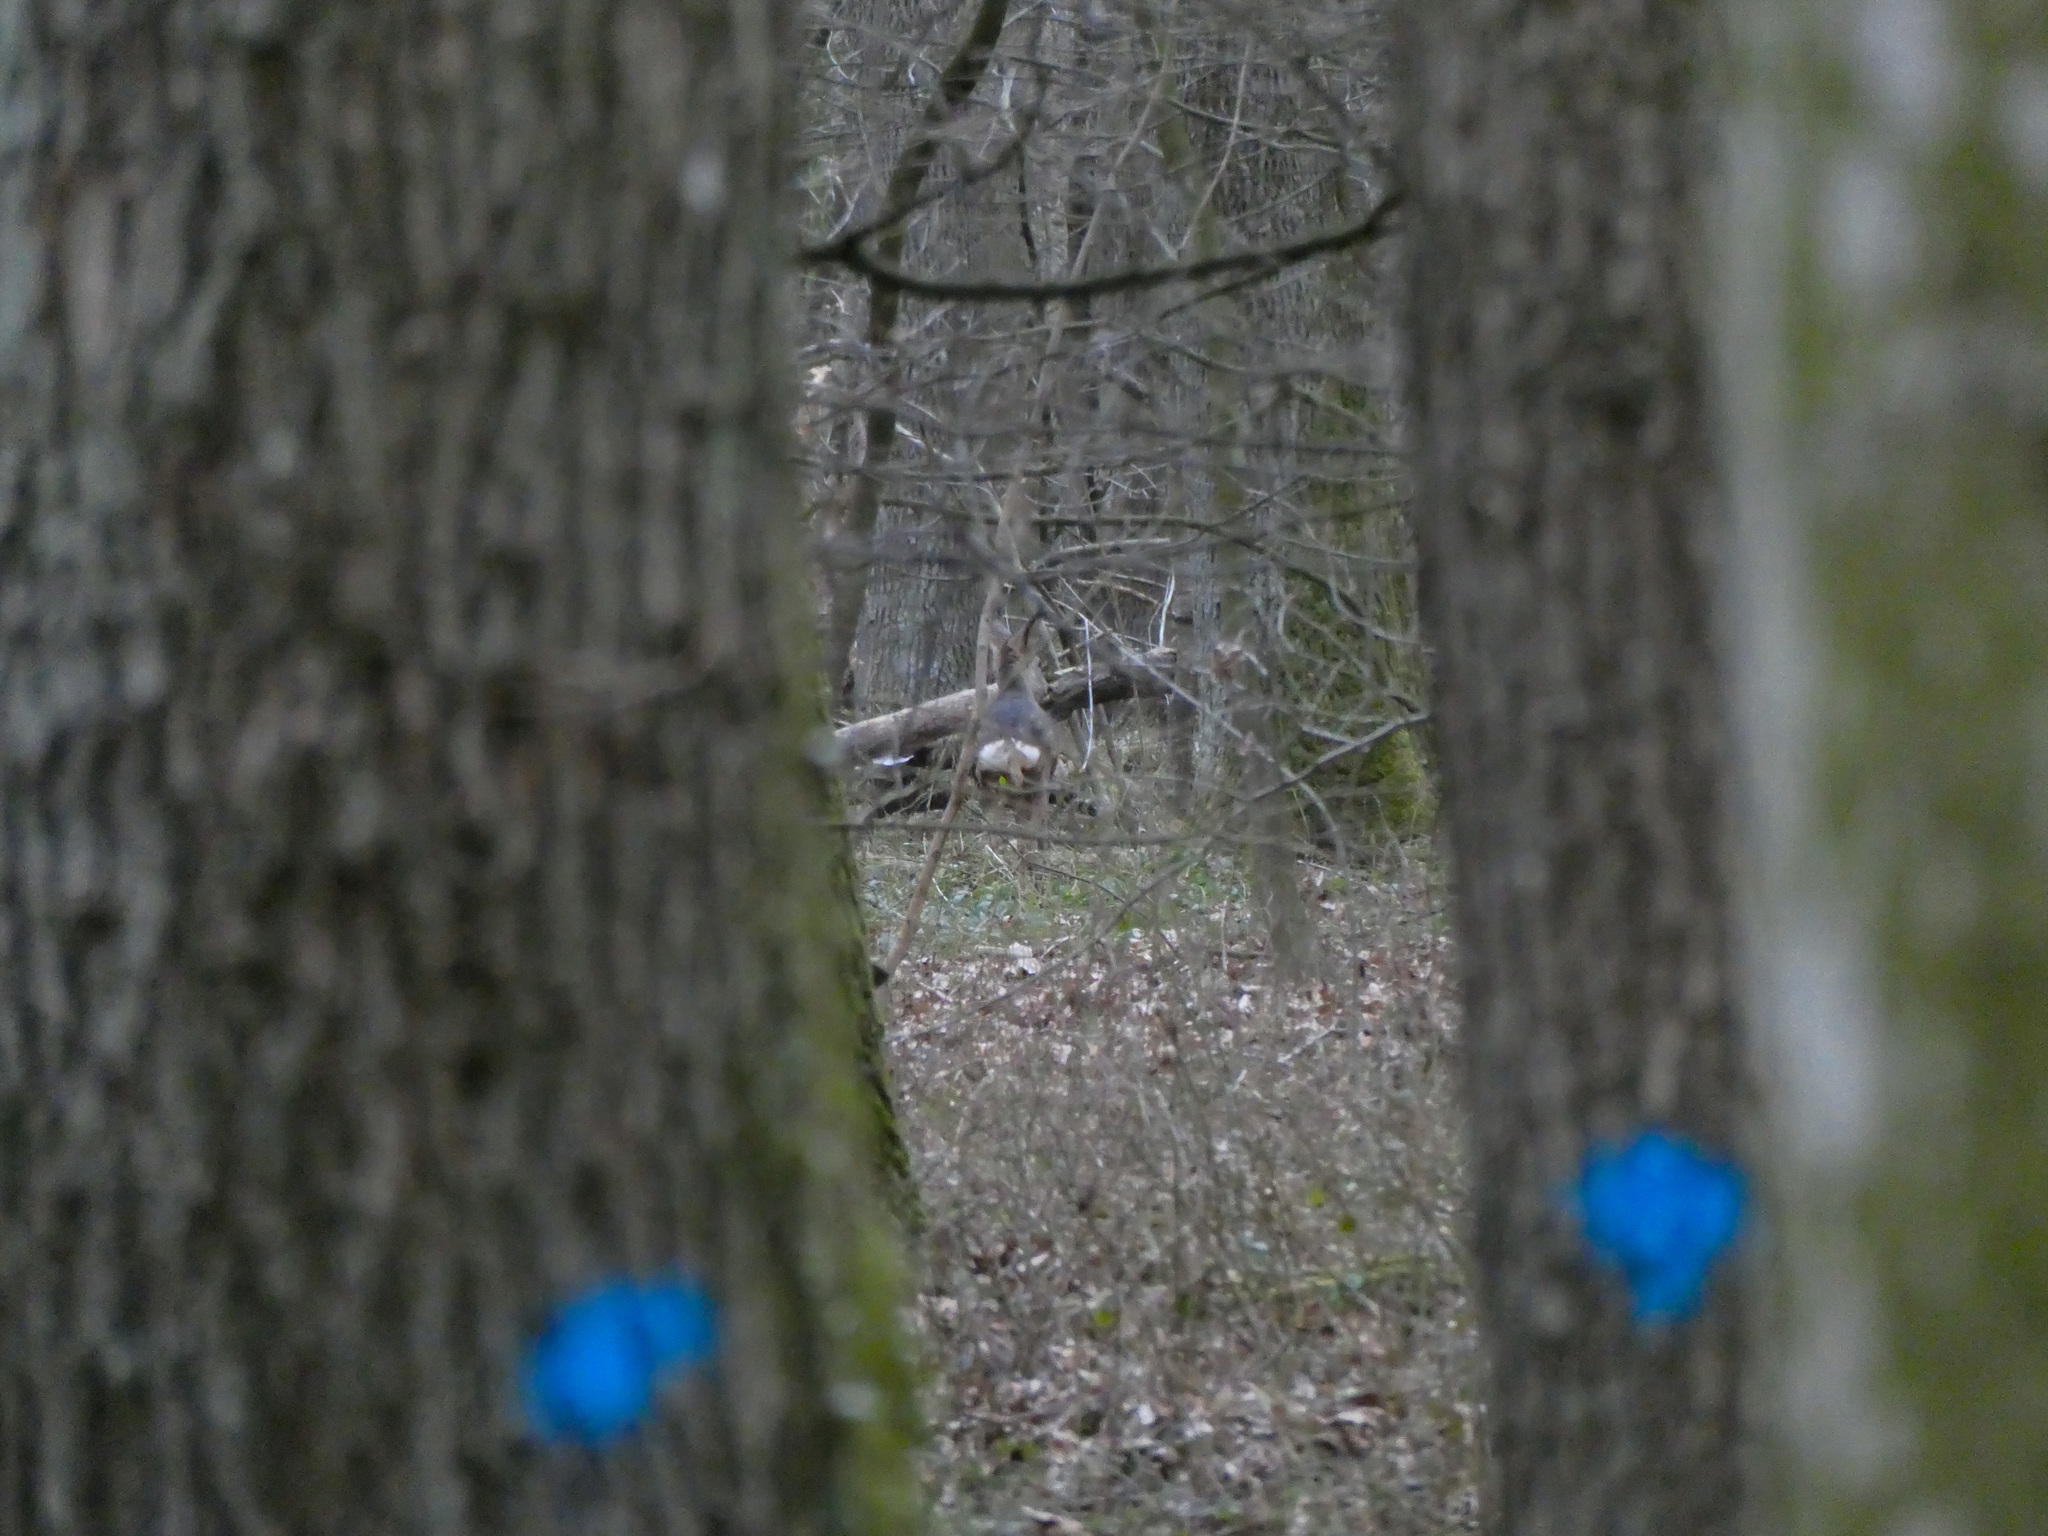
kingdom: Animalia
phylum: Chordata
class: Mammalia
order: Artiodactyla
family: Cervidae
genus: Capreolus
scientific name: Capreolus capreolus
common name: Western roe deer
